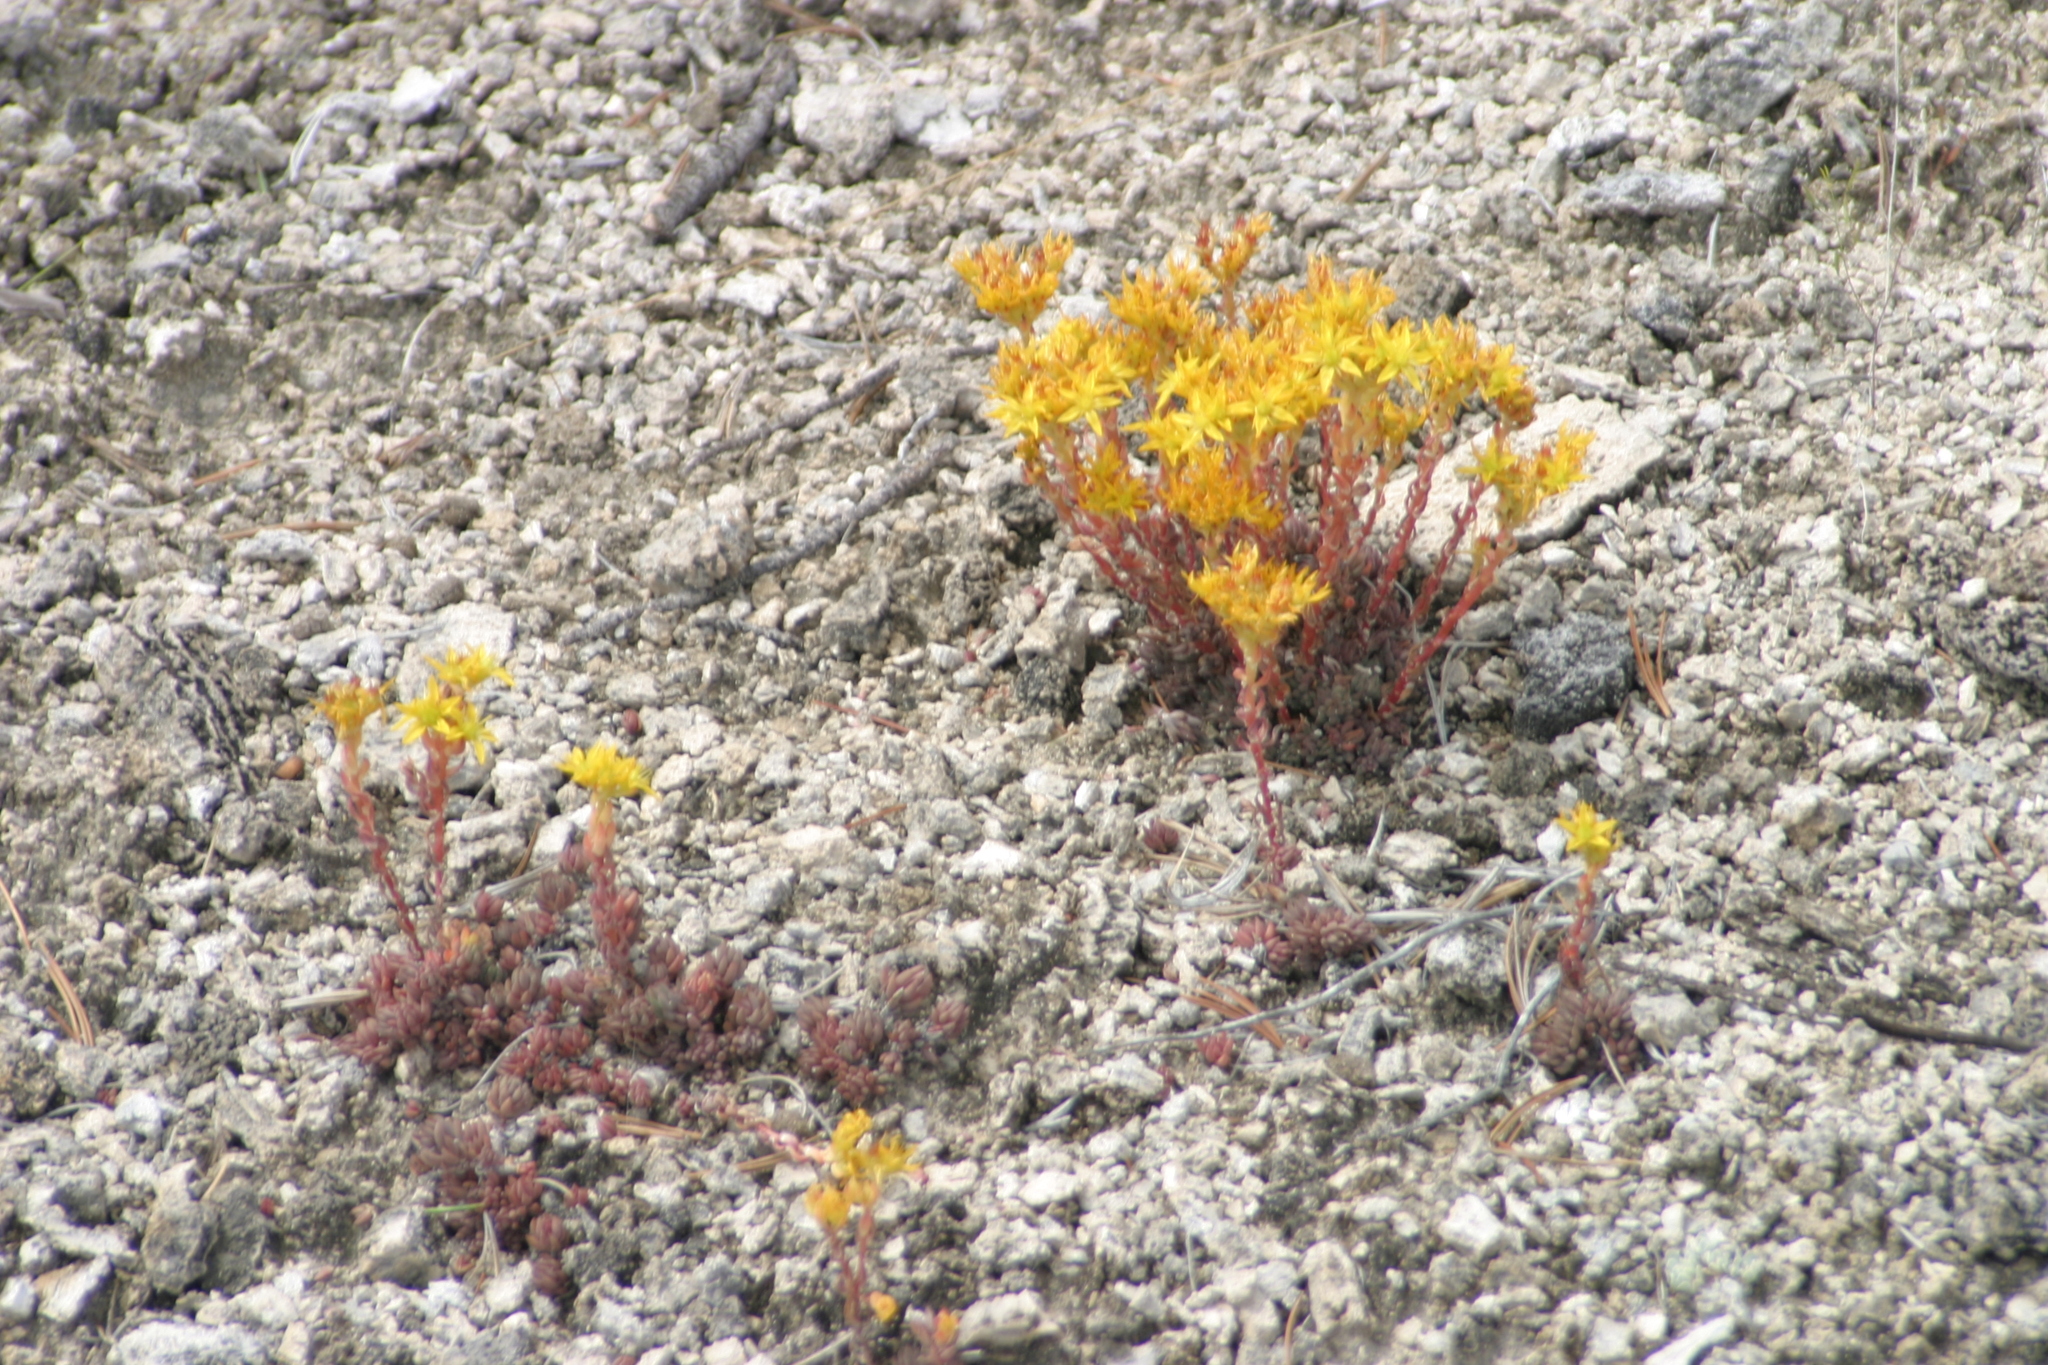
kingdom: Plantae
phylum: Tracheophyta
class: Magnoliopsida
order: Saxifragales
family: Crassulaceae
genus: Sedum
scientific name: Sedum lanceolatum
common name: Common stonecrop
